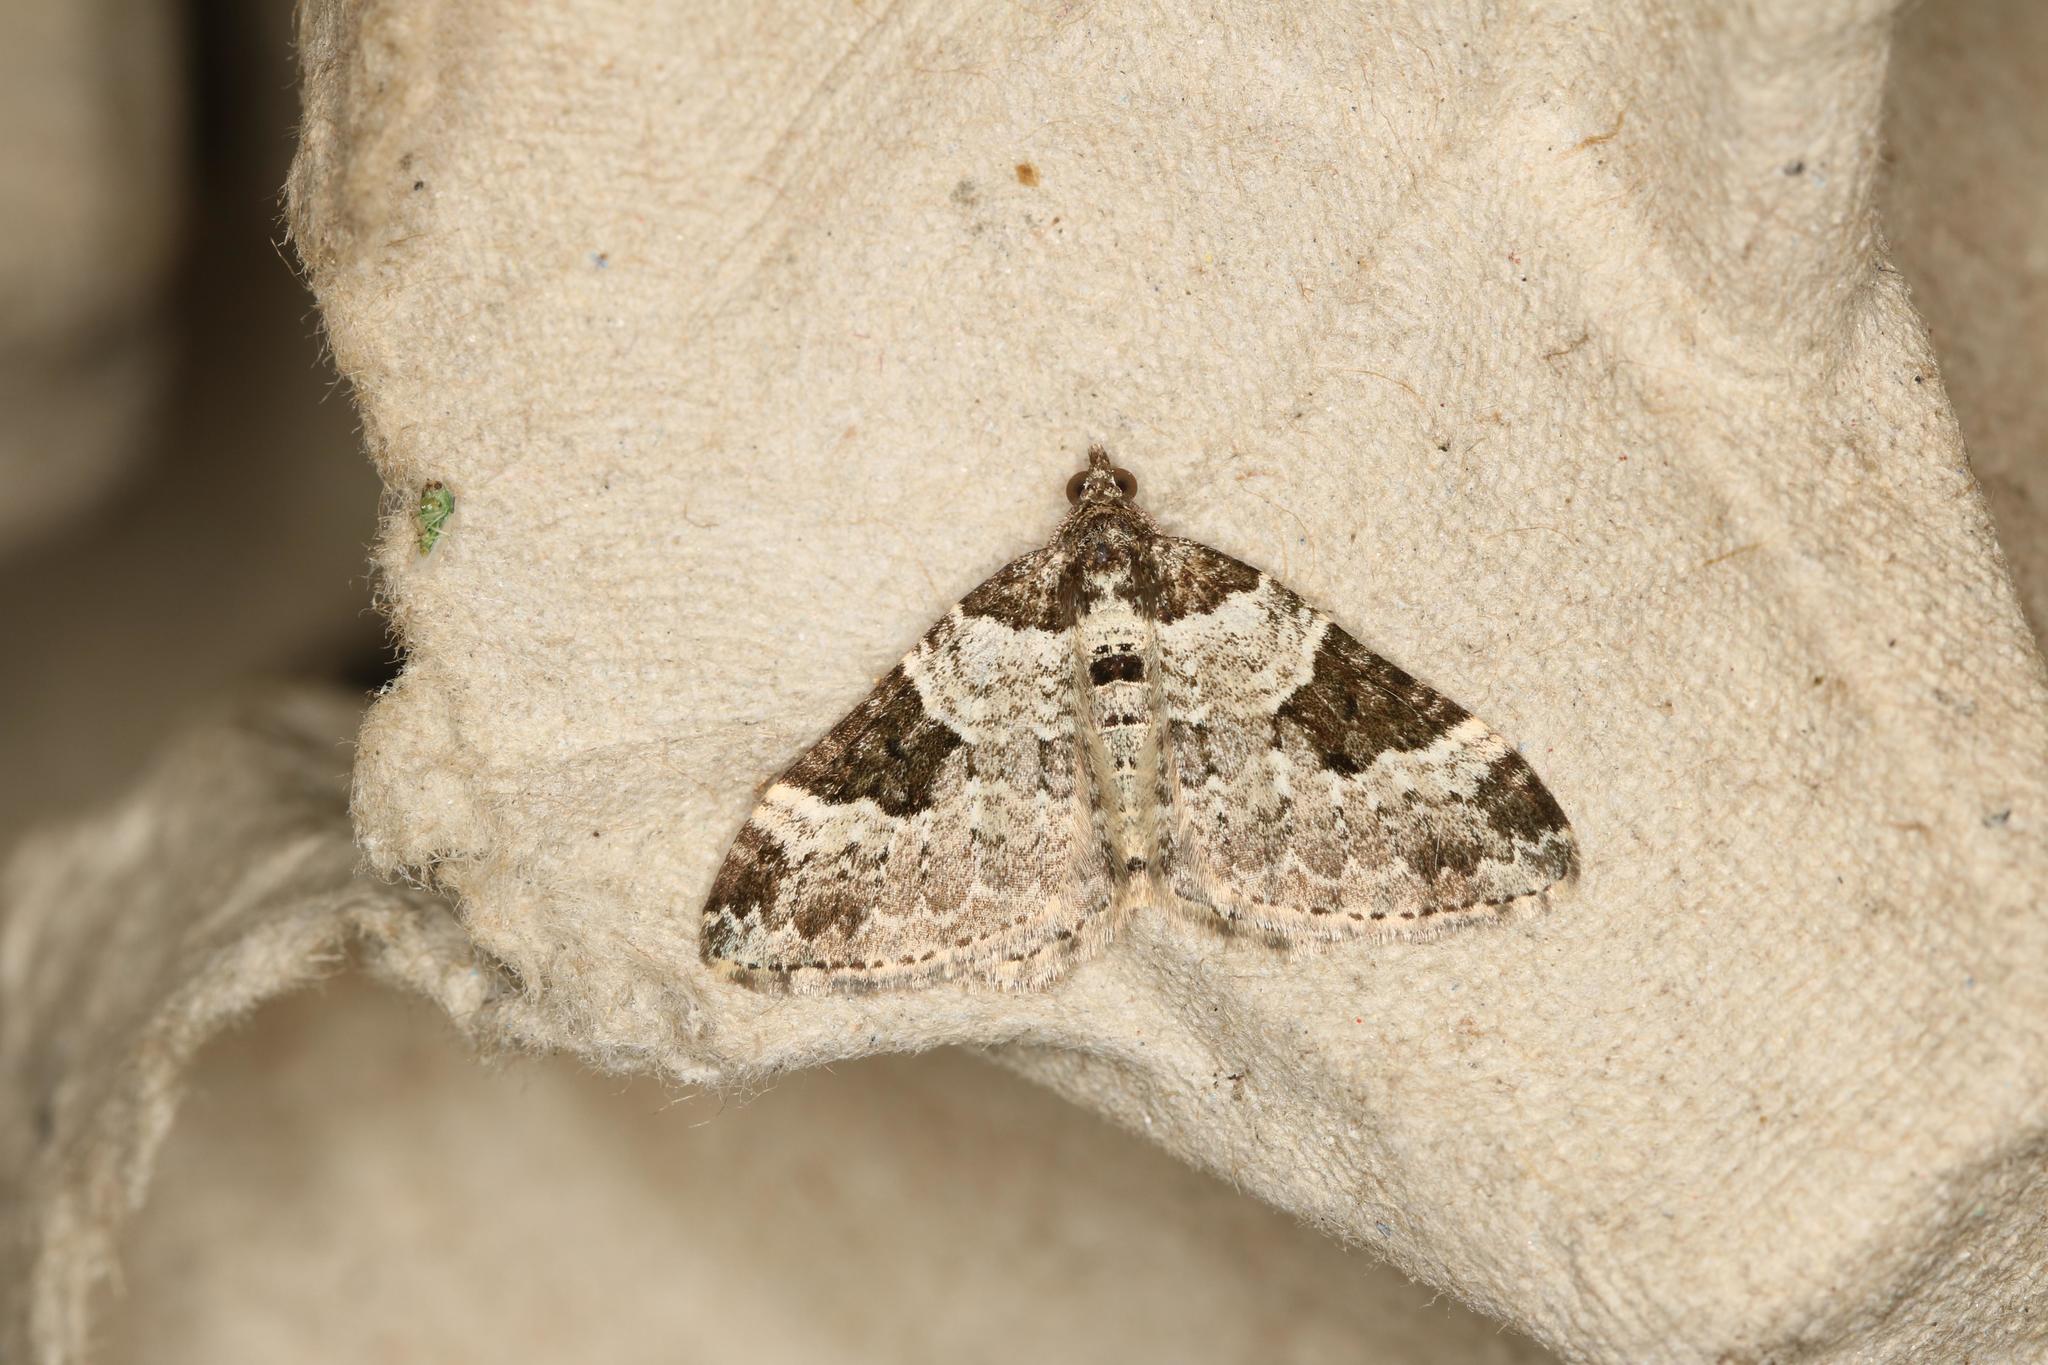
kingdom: Animalia
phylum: Arthropoda
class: Insecta
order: Lepidoptera
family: Geometridae
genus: Xanthorhoe
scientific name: Xanthorhoe fluctuata
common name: Garden carpet
